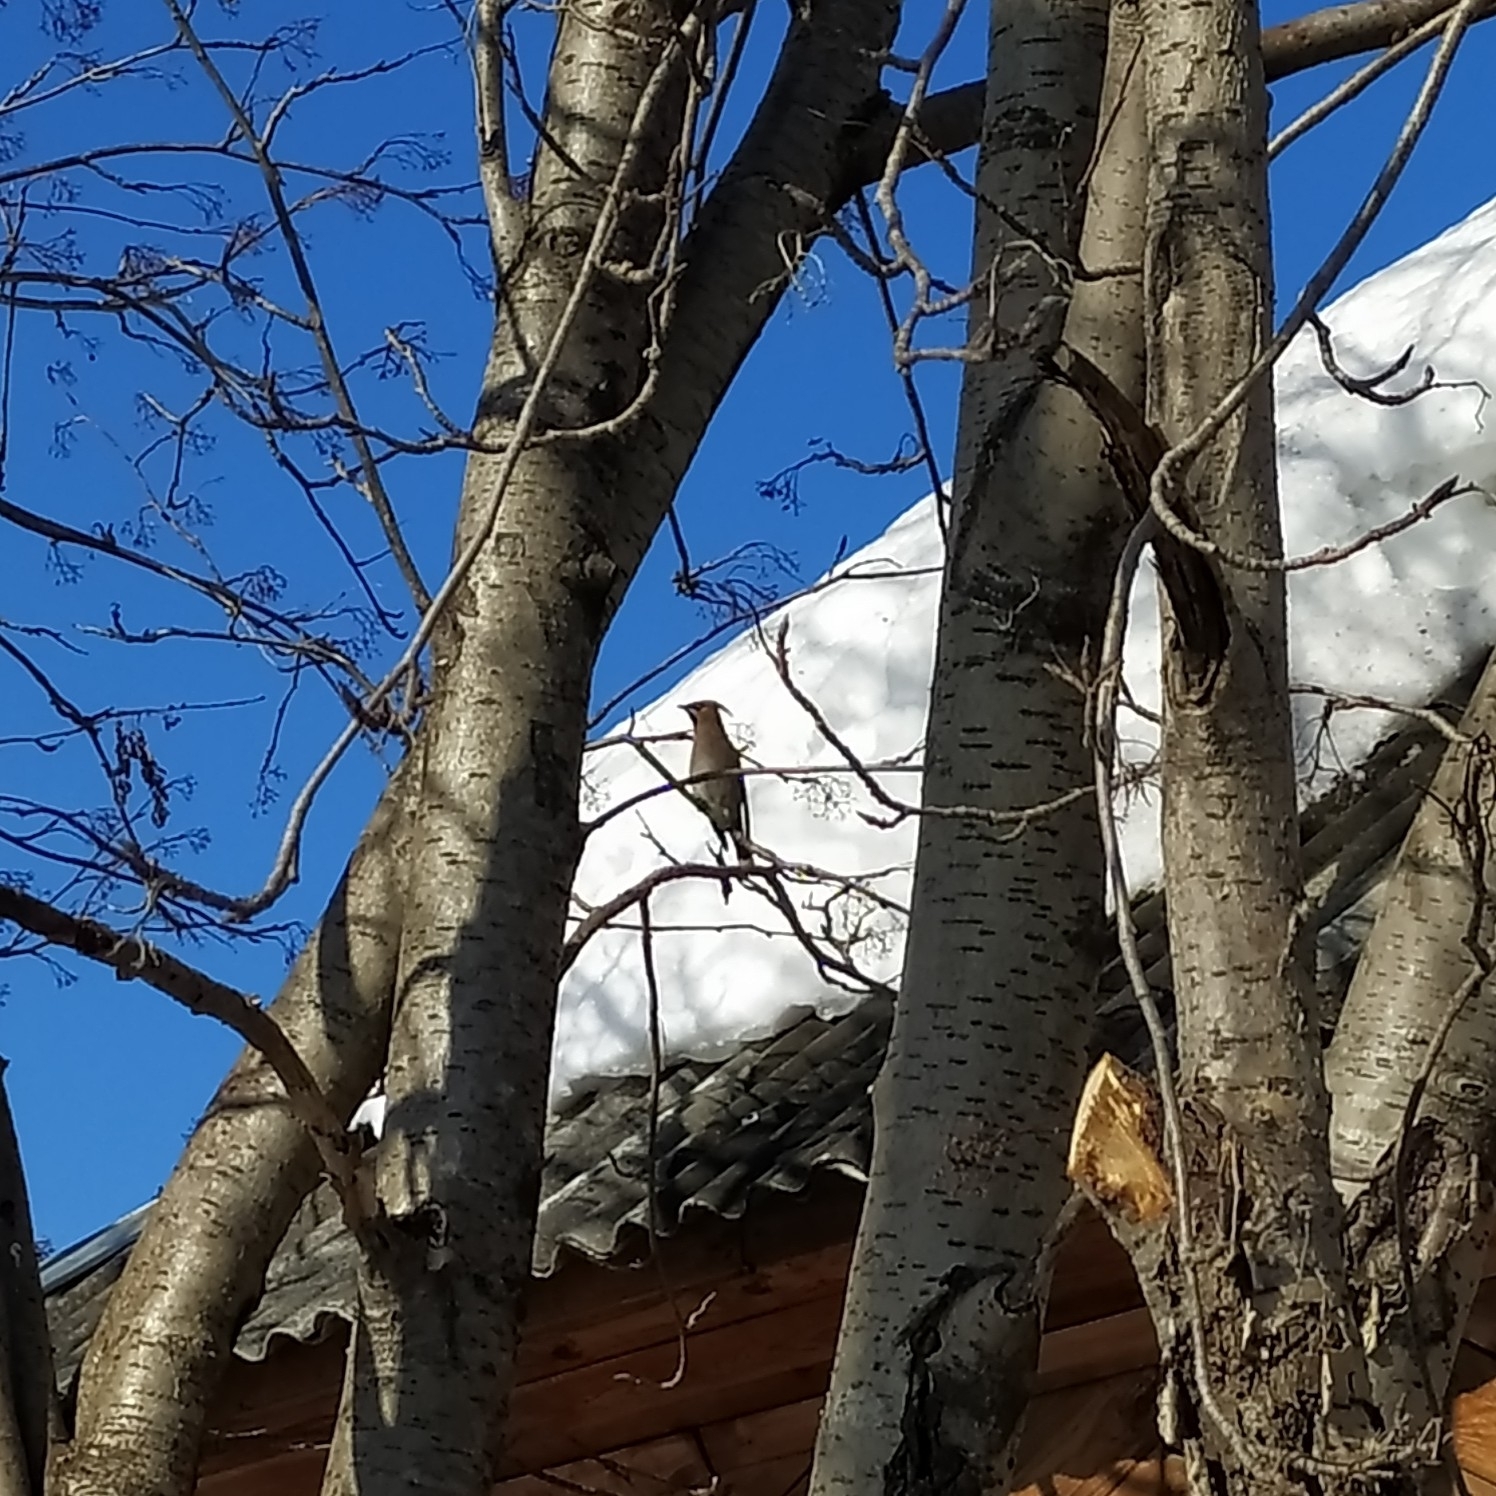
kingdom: Animalia
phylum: Chordata
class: Aves
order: Passeriformes
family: Bombycillidae
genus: Bombycilla
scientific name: Bombycilla garrulus
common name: Bohemian waxwing
